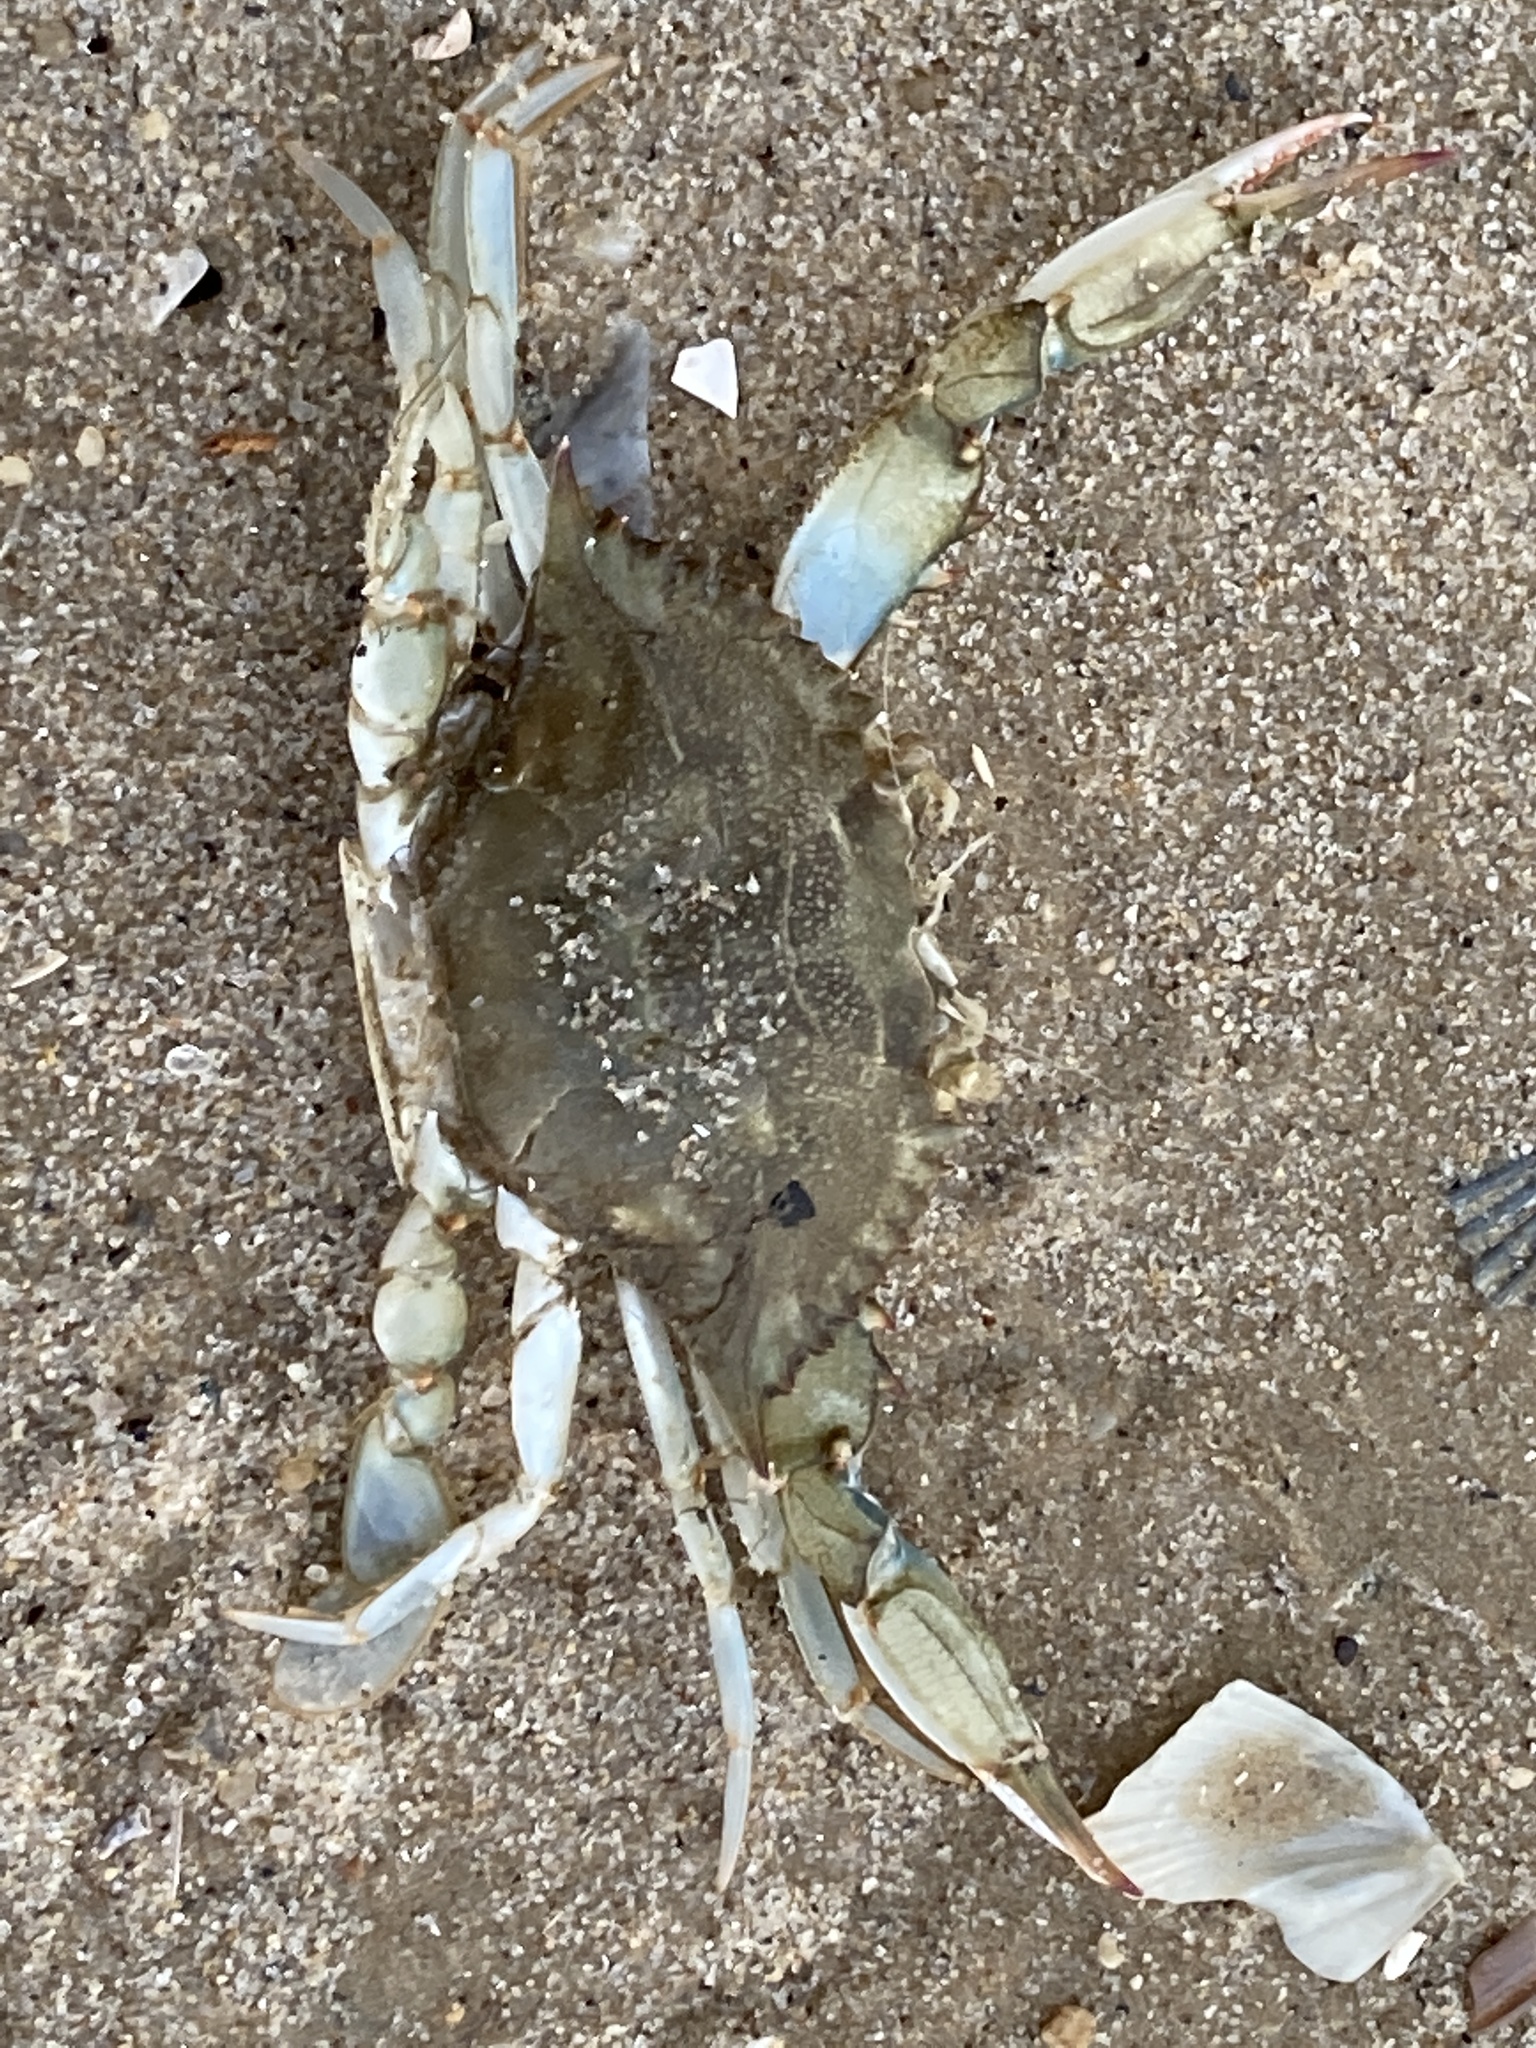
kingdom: Animalia
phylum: Arthropoda
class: Malacostraca
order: Decapoda
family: Portunidae
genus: Callinectes
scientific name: Callinectes sapidus
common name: Blue crab
